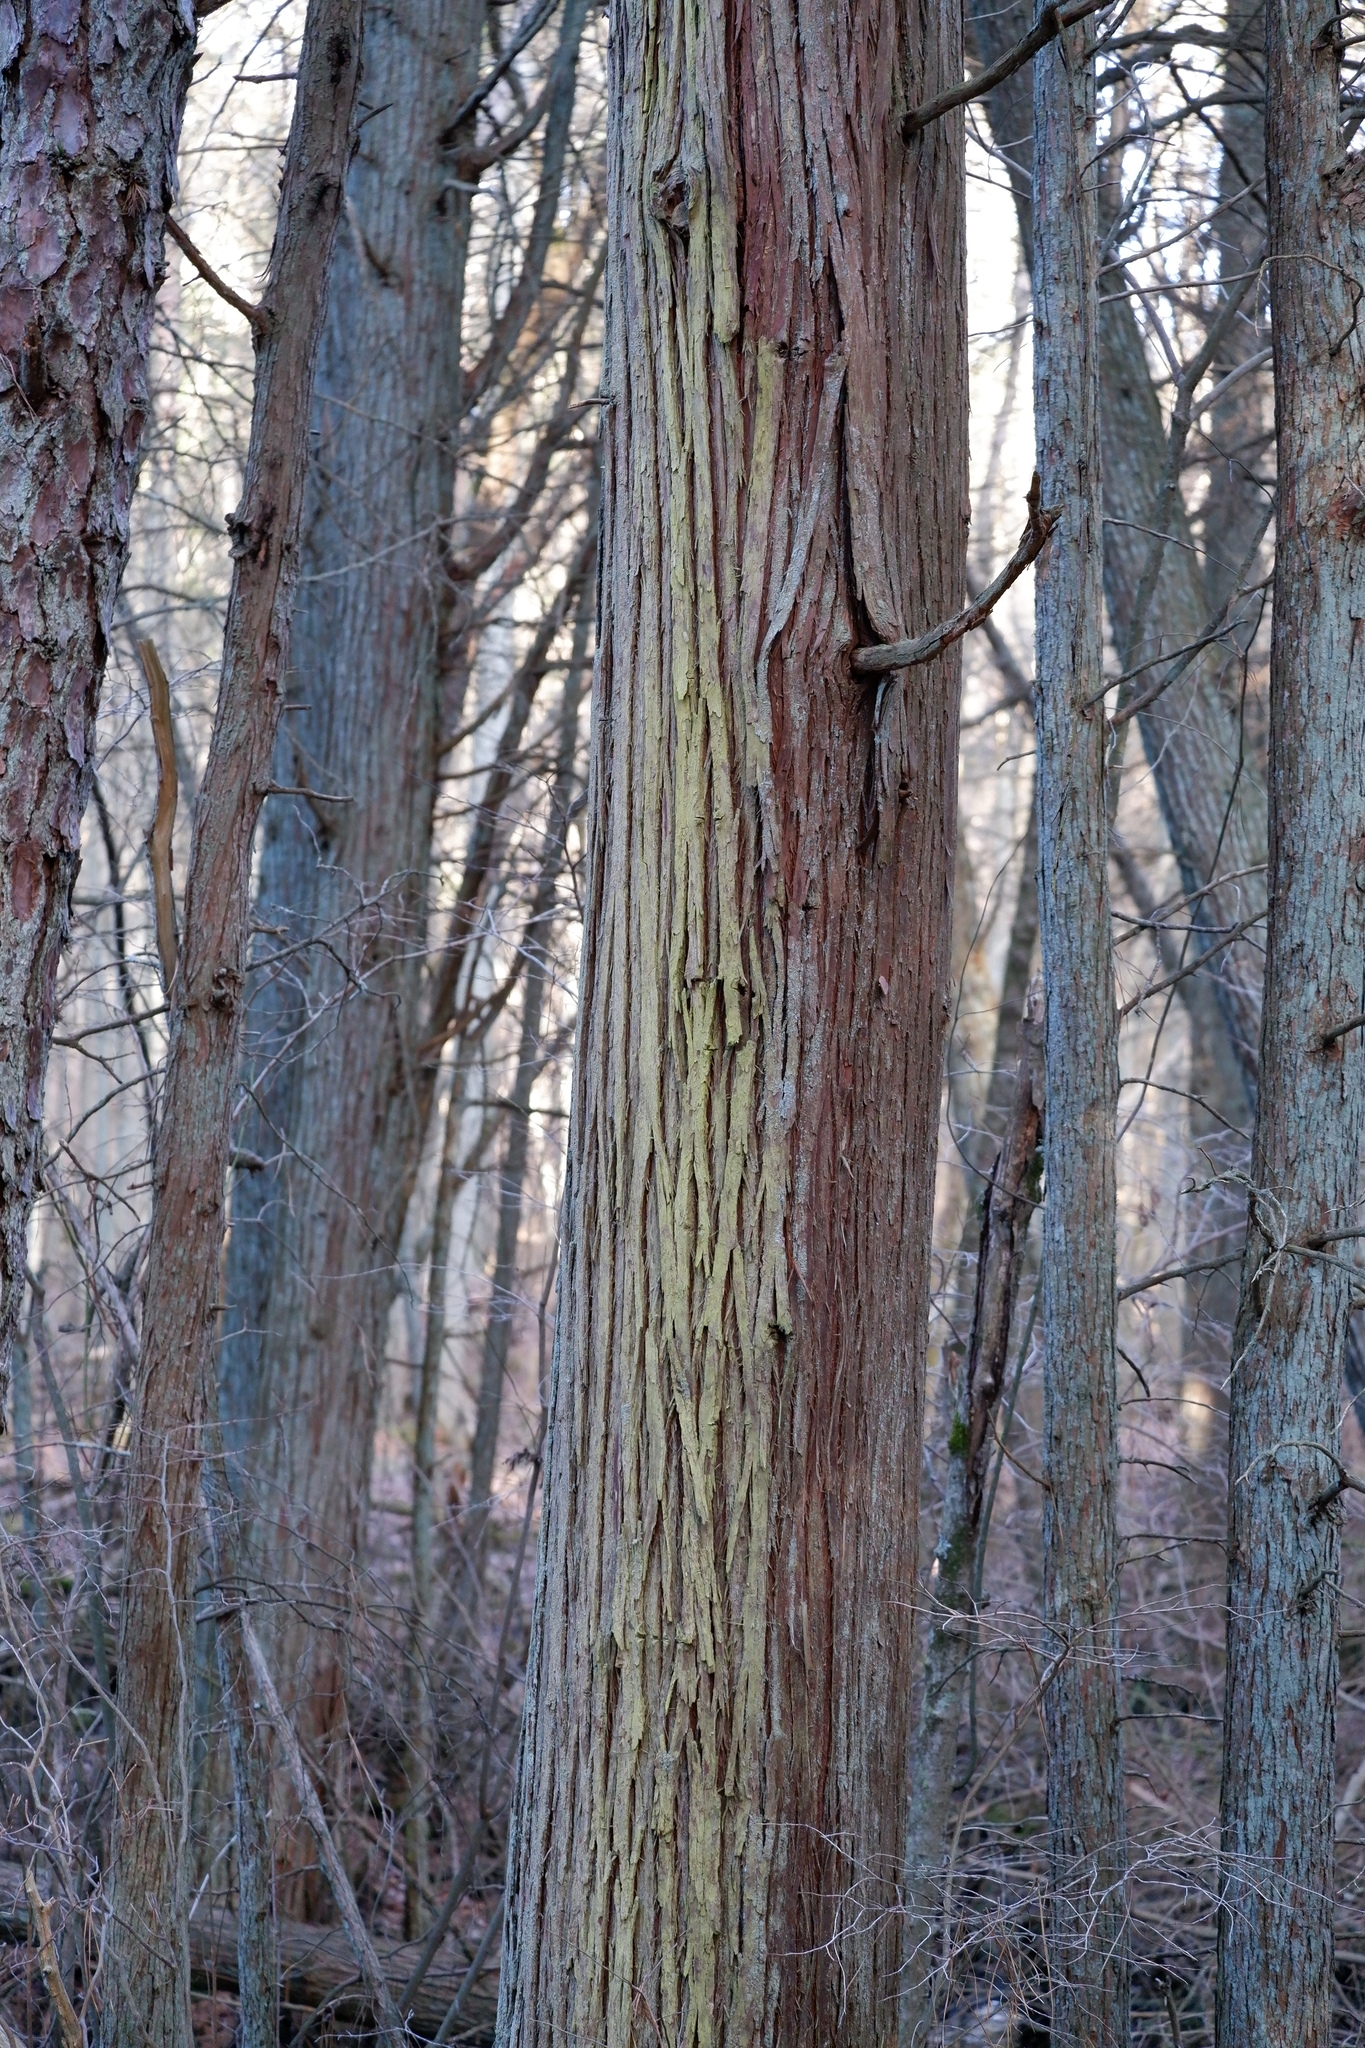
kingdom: Fungi
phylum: Ascomycota
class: Arthoniomycetes
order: Arthoniales
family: Chrysotrichaceae
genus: Chrysothrix
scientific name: Chrysothrix chamaecyparicola
